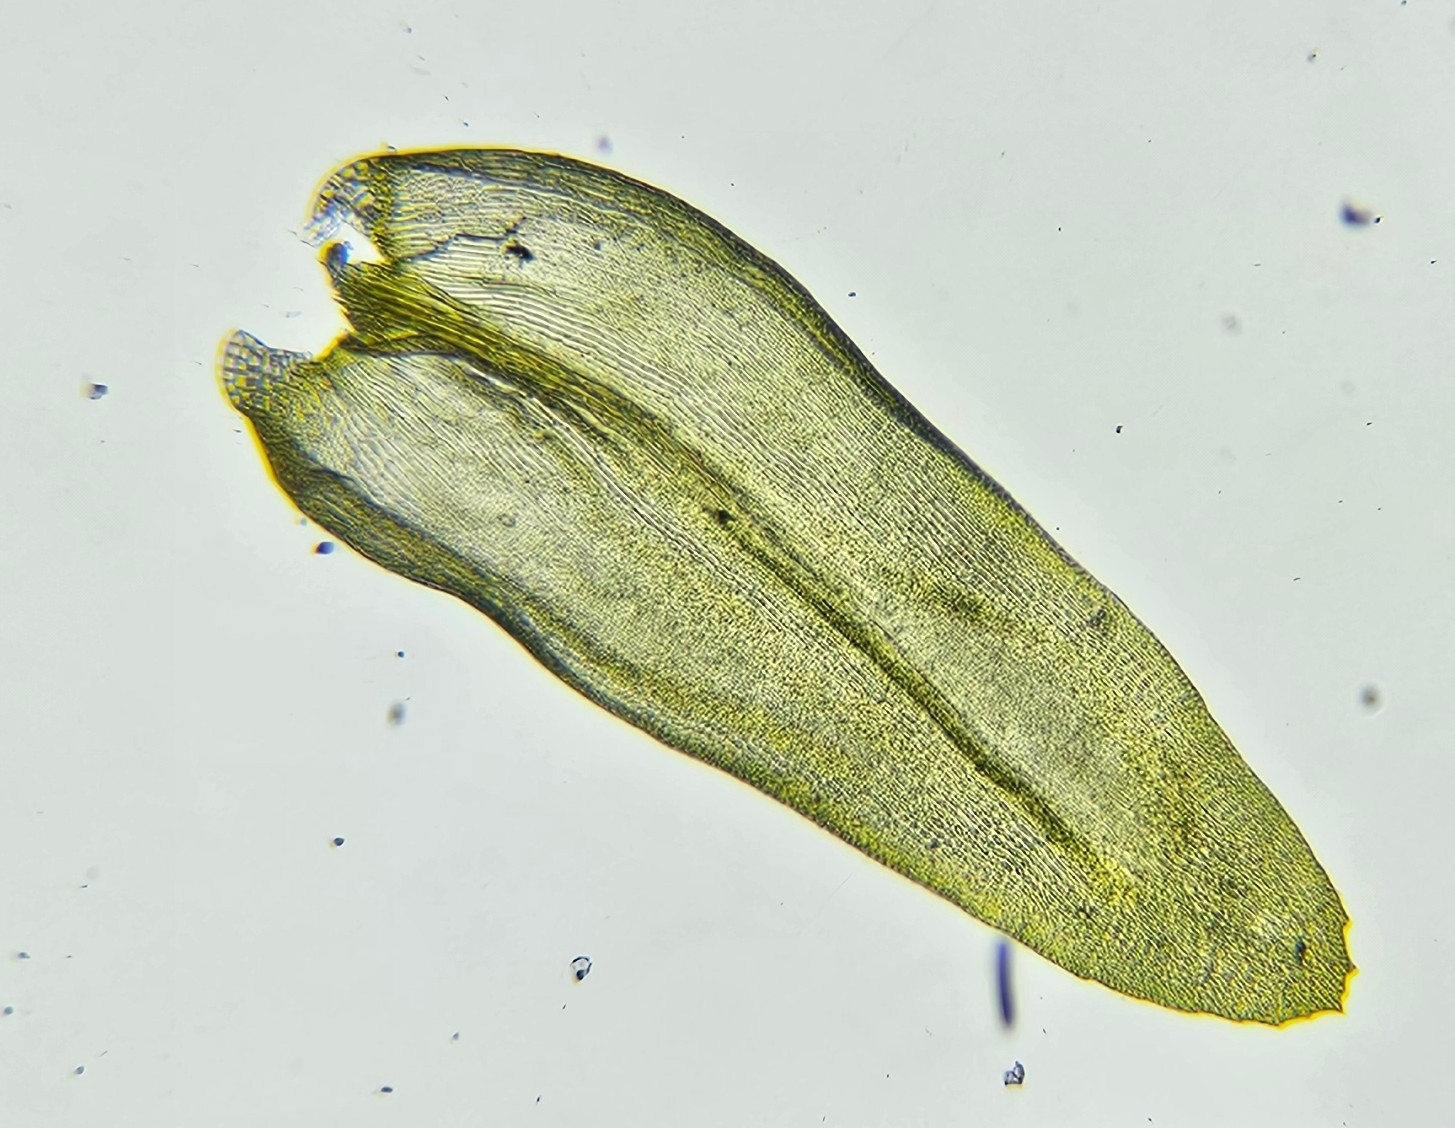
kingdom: Plantae
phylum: Bryophyta
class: Bryopsida
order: Grimmiales
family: Grimmiaceae
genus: Codriophorus
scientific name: Codriophorus acicularis
